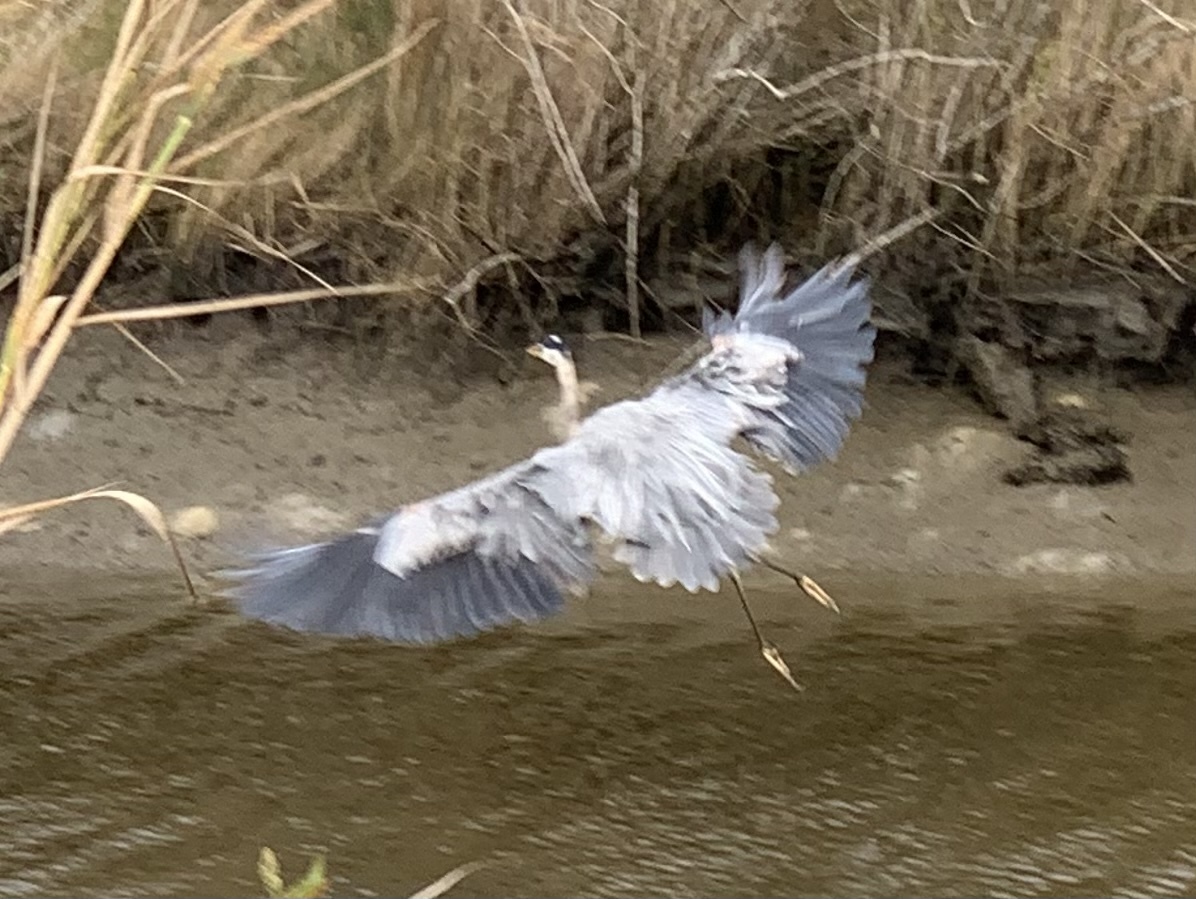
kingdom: Animalia
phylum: Chordata
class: Aves
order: Pelecaniformes
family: Ardeidae
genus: Ardea
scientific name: Ardea herodias
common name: Great blue heron
